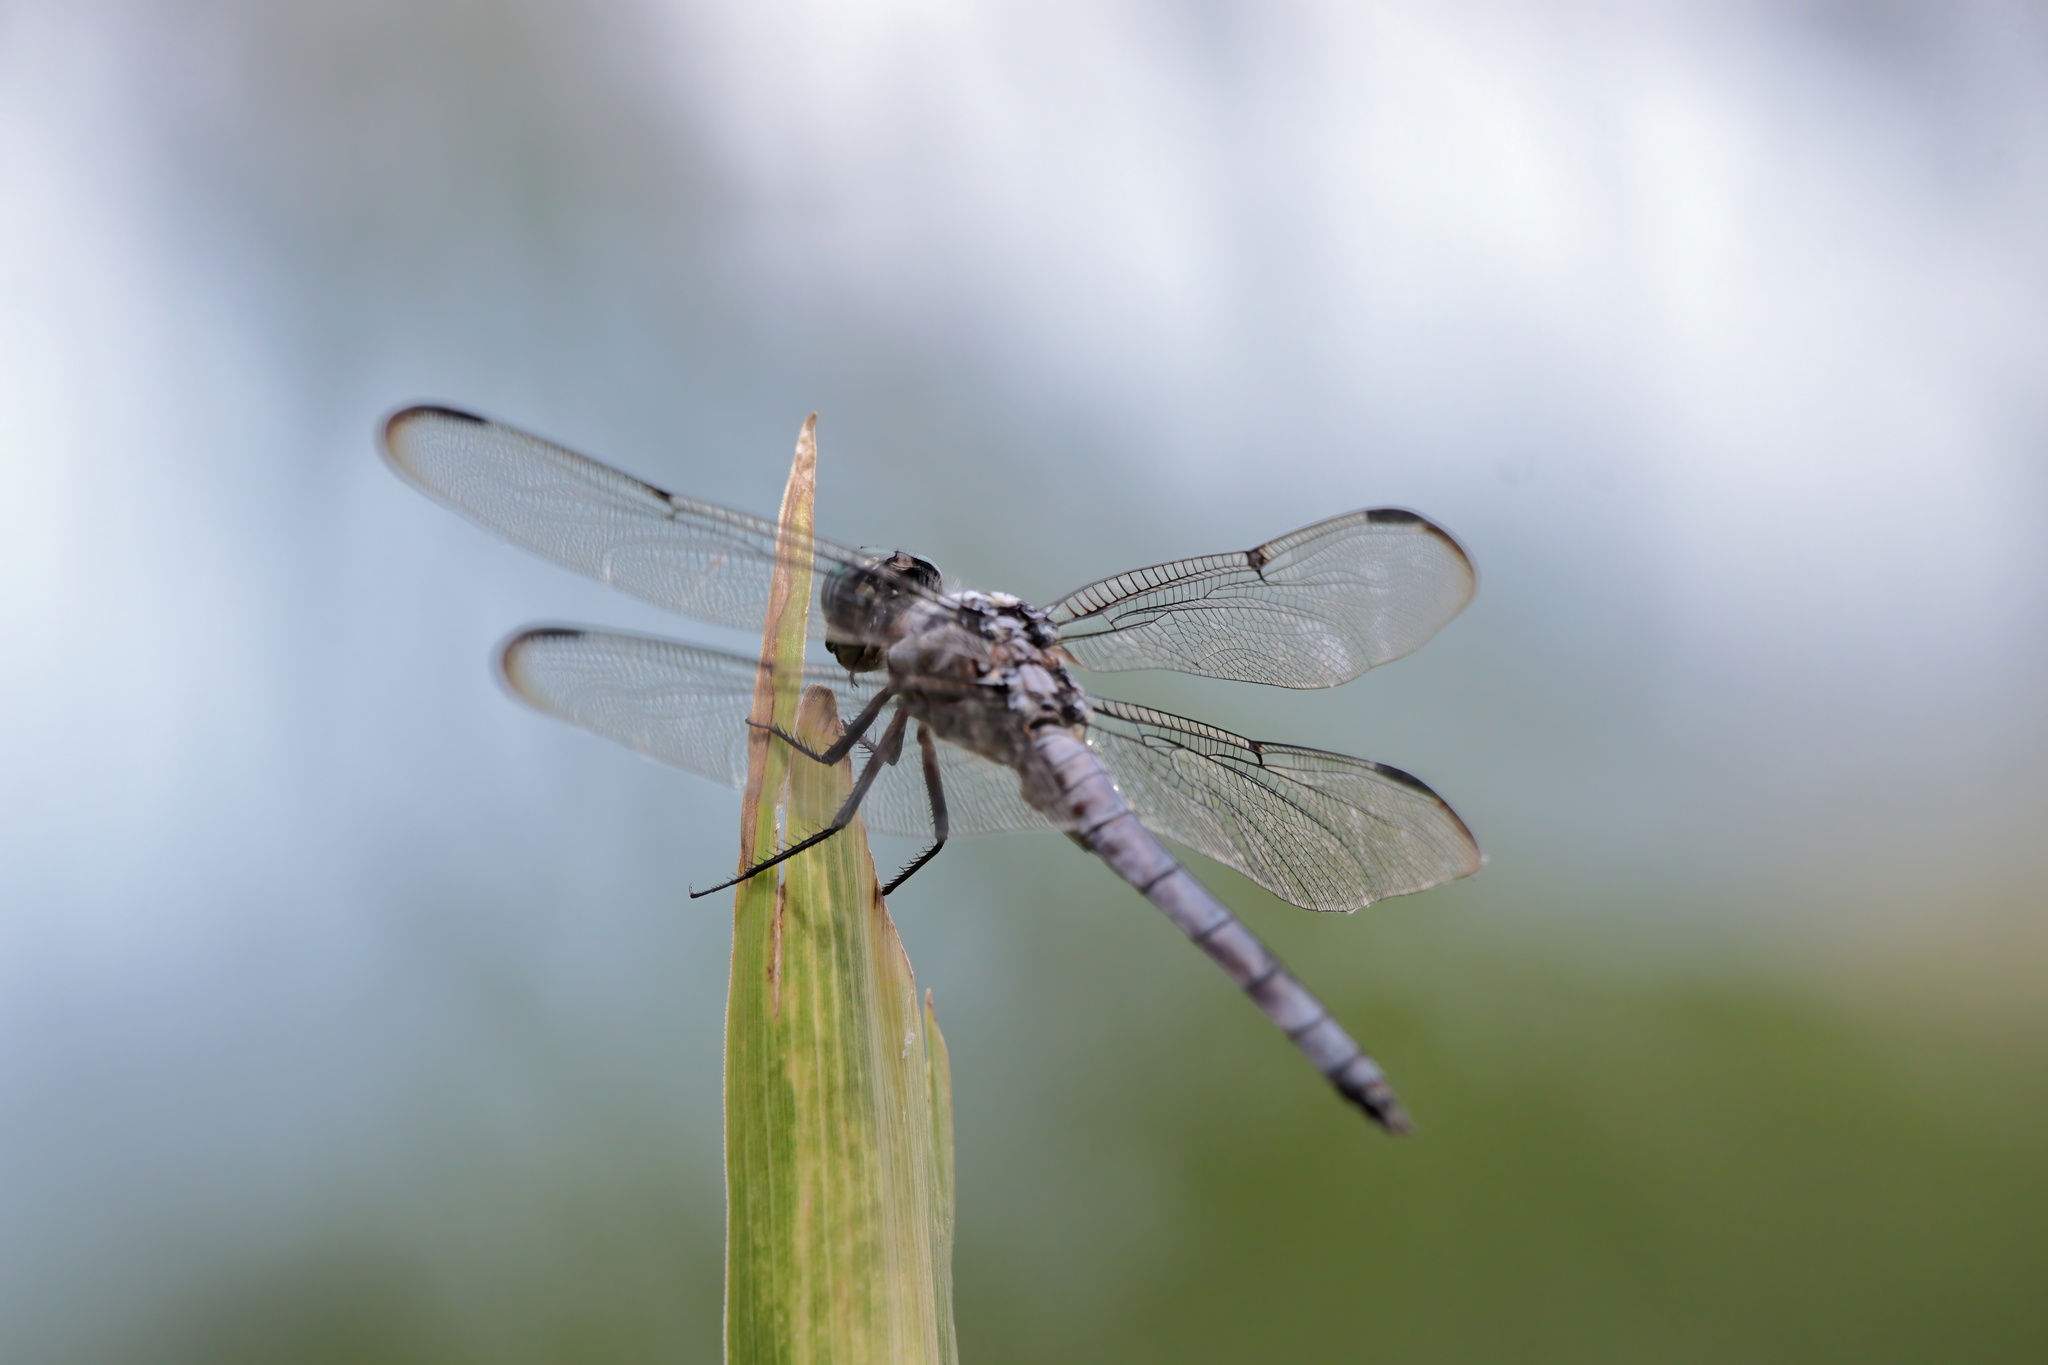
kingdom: Animalia
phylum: Arthropoda
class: Insecta
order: Odonata
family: Libellulidae
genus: Libellula
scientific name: Libellula vibrans
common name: Great blue skimmer
